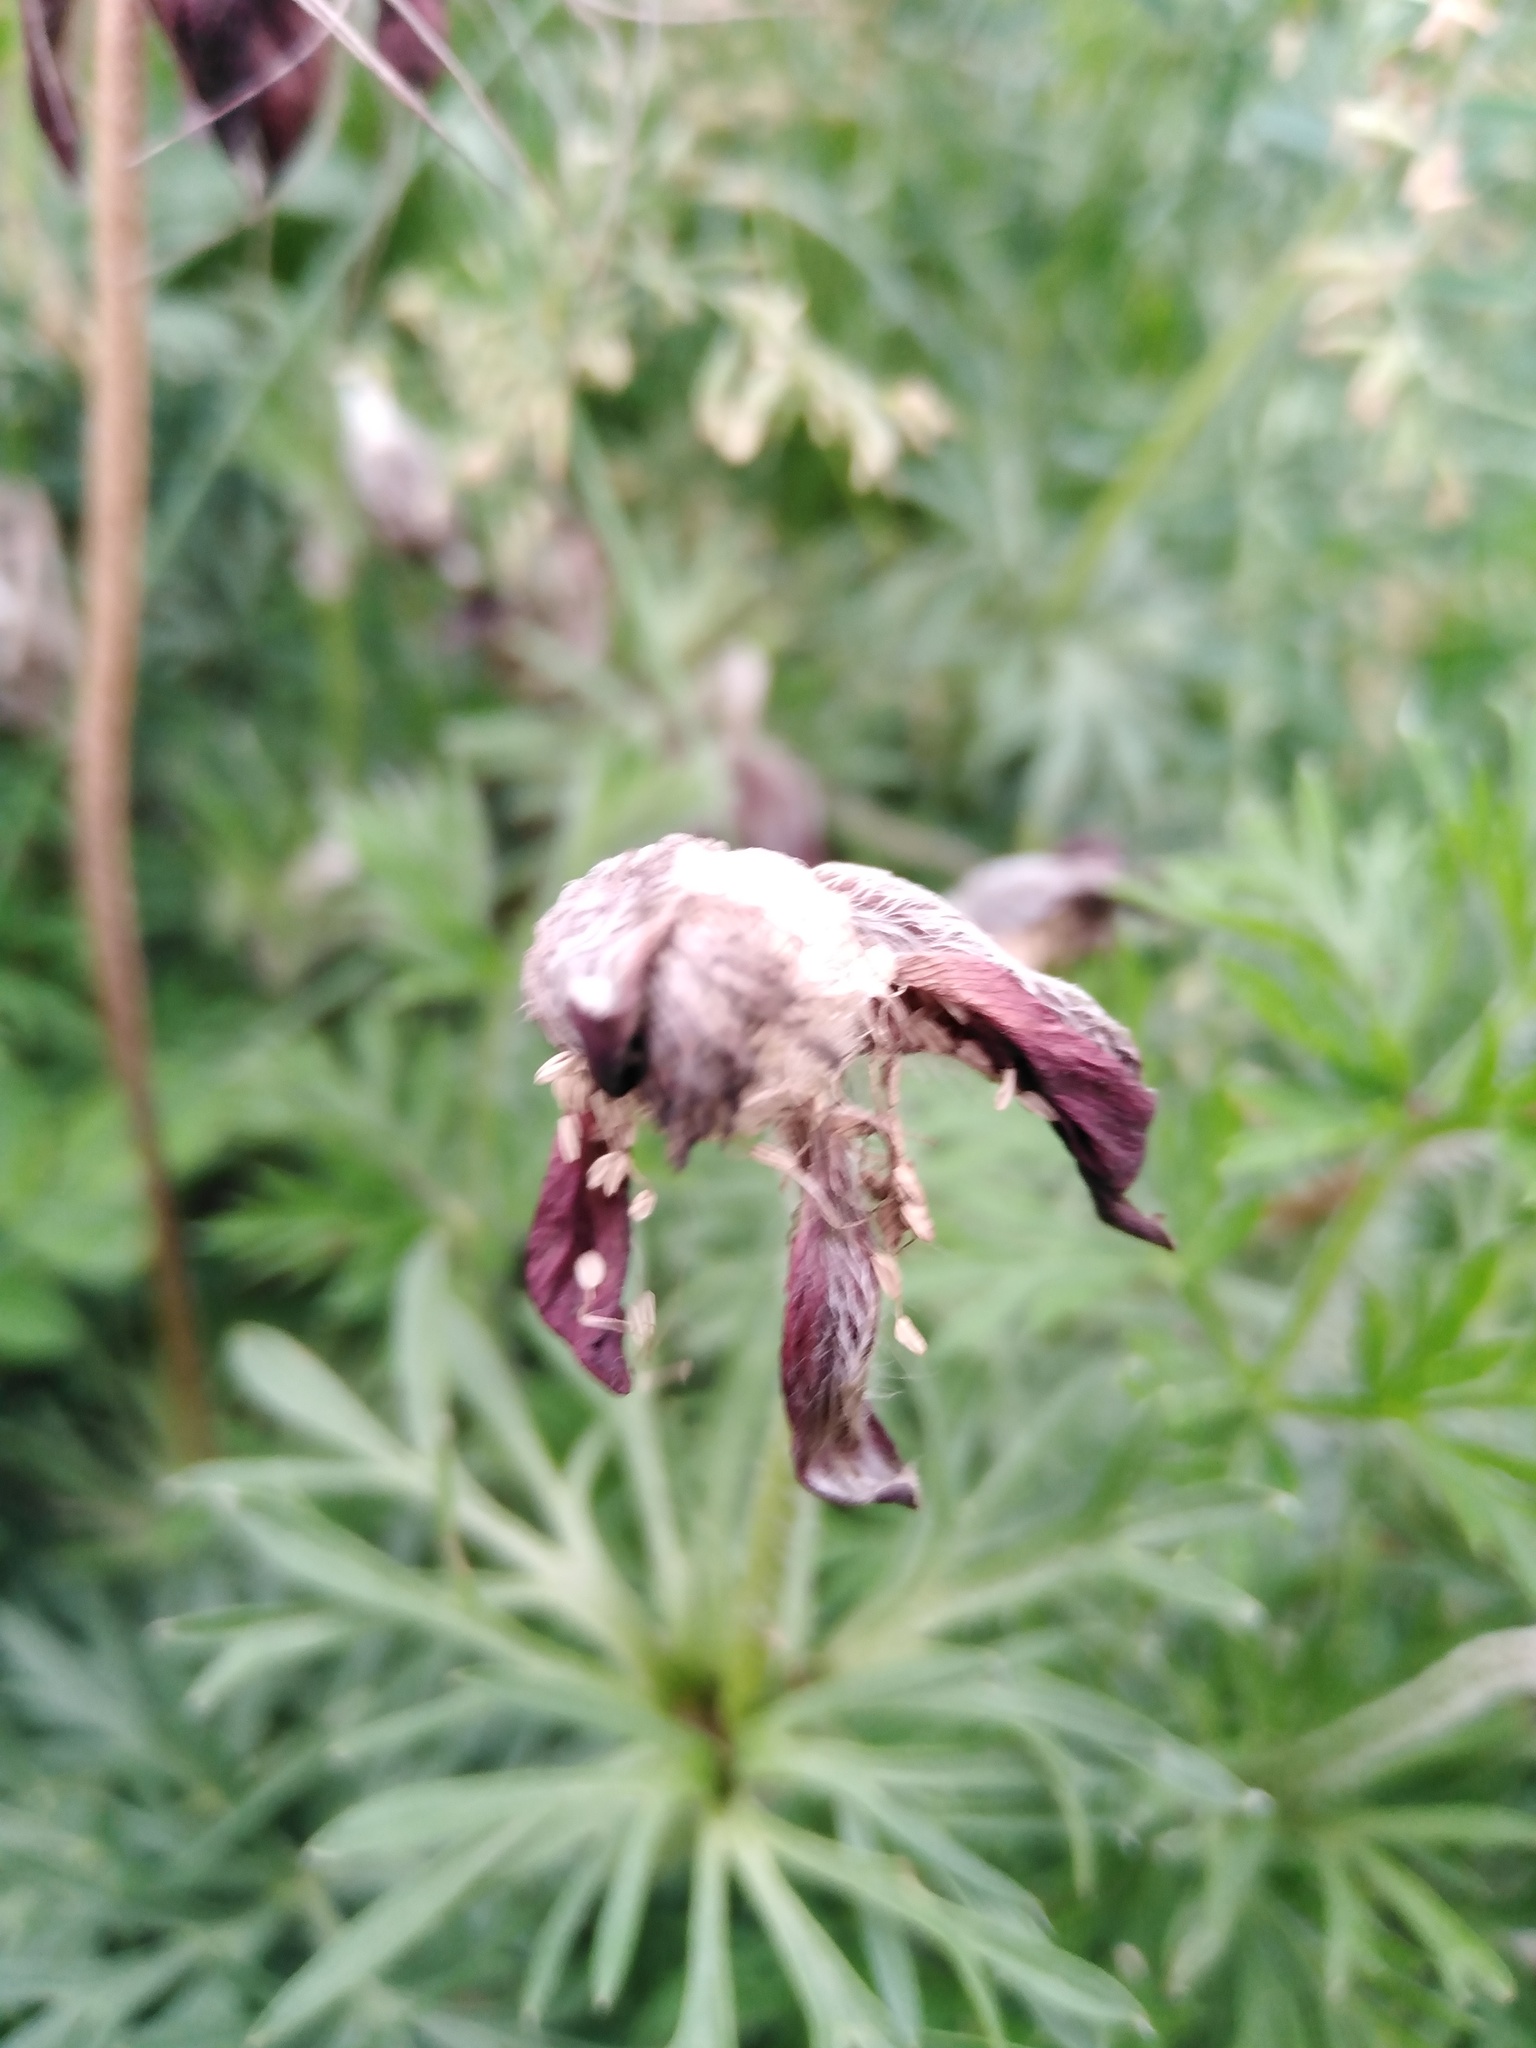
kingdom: Plantae
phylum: Tracheophyta
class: Magnoliopsida
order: Ranunculales
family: Ranunculaceae
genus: Pulsatilla
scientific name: Pulsatilla pratensis
